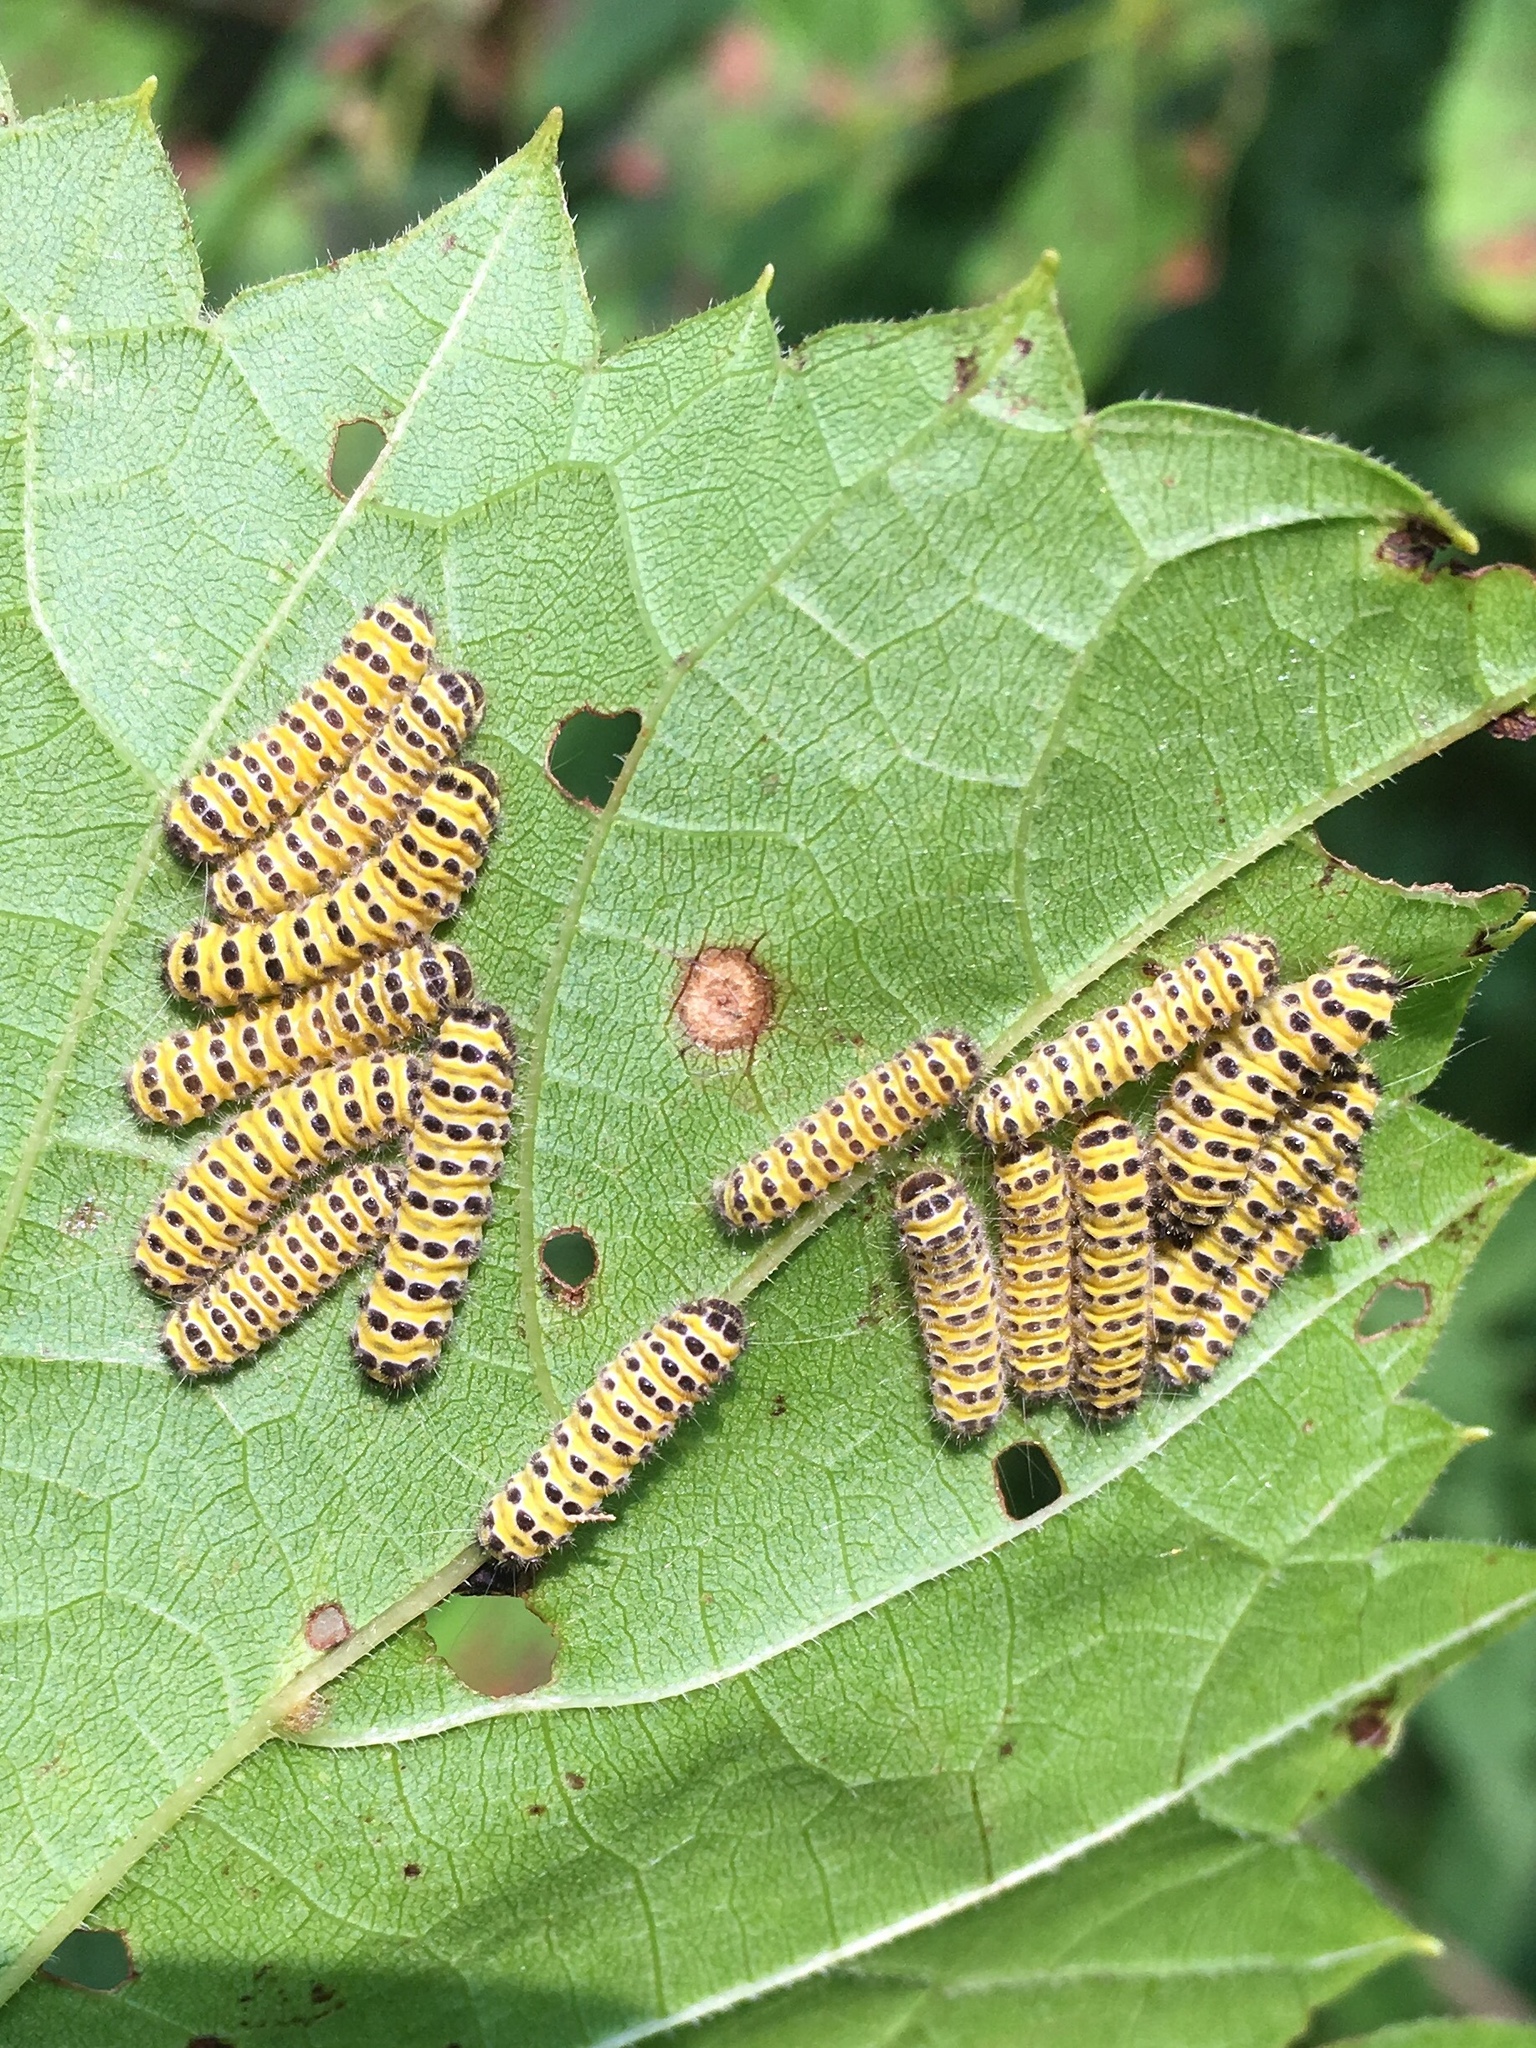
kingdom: Animalia
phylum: Arthropoda
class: Insecta
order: Lepidoptera
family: Zygaenidae
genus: Harrisina
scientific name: Harrisina americana
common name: Grapeleaf skeletonizer moth
